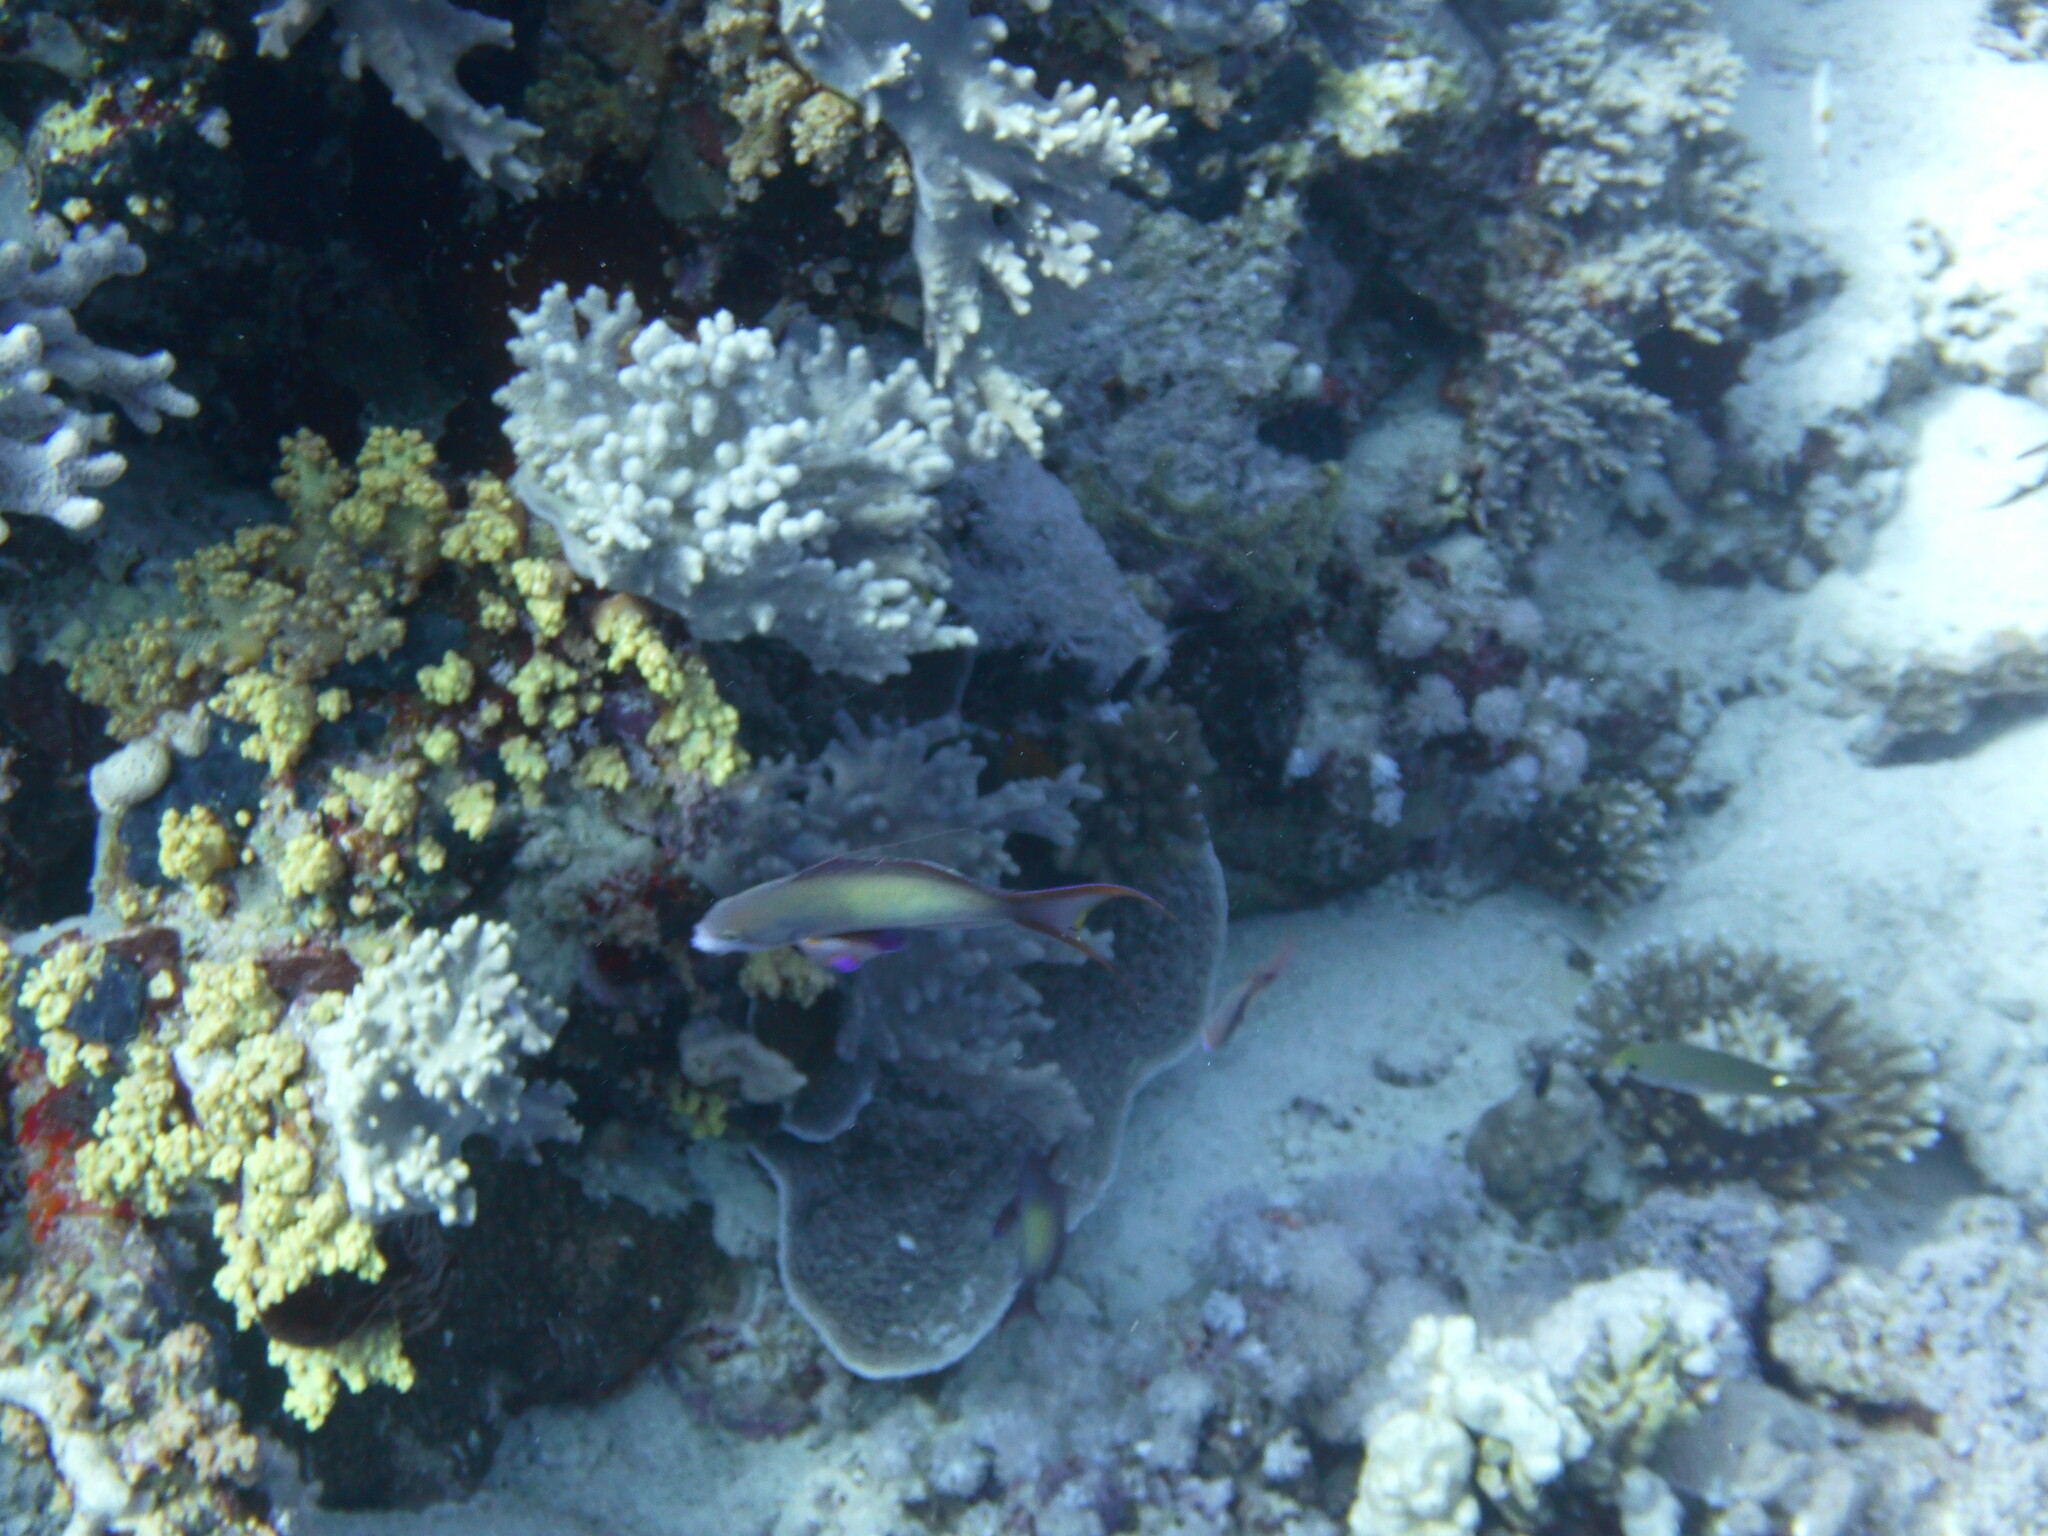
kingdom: Animalia
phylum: Chordata
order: Perciformes
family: Serranidae
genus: Pseudanthias
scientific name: Pseudanthias squamipinnis
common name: Scalefin anthias
